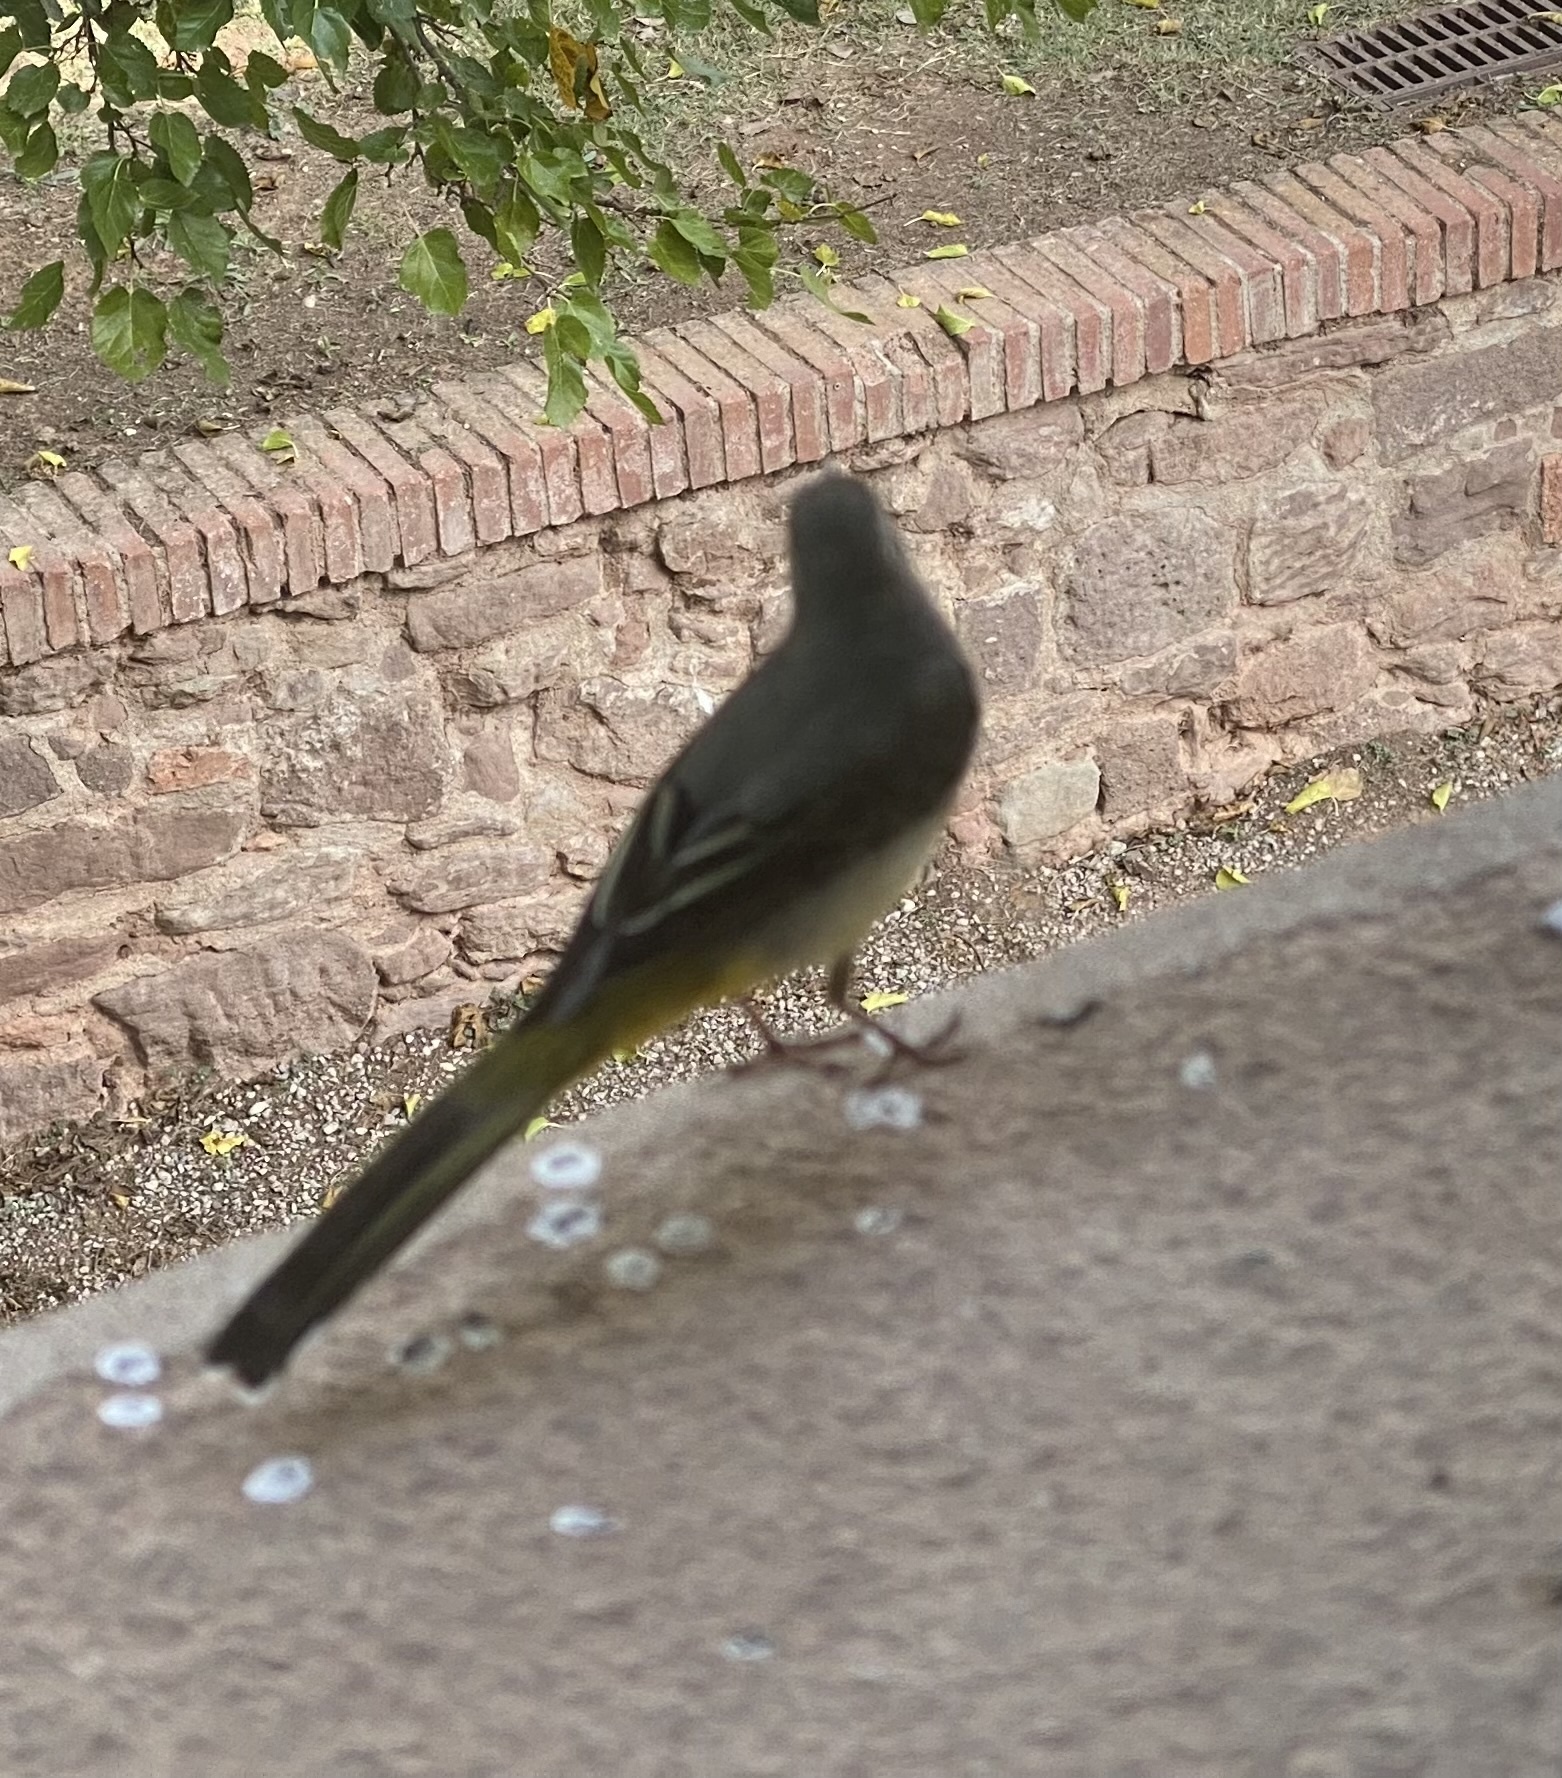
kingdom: Animalia
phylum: Chordata
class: Aves
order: Passeriformes
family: Motacillidae
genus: Motacilla
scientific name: Motacilla cinerea
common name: Grey wagtail
